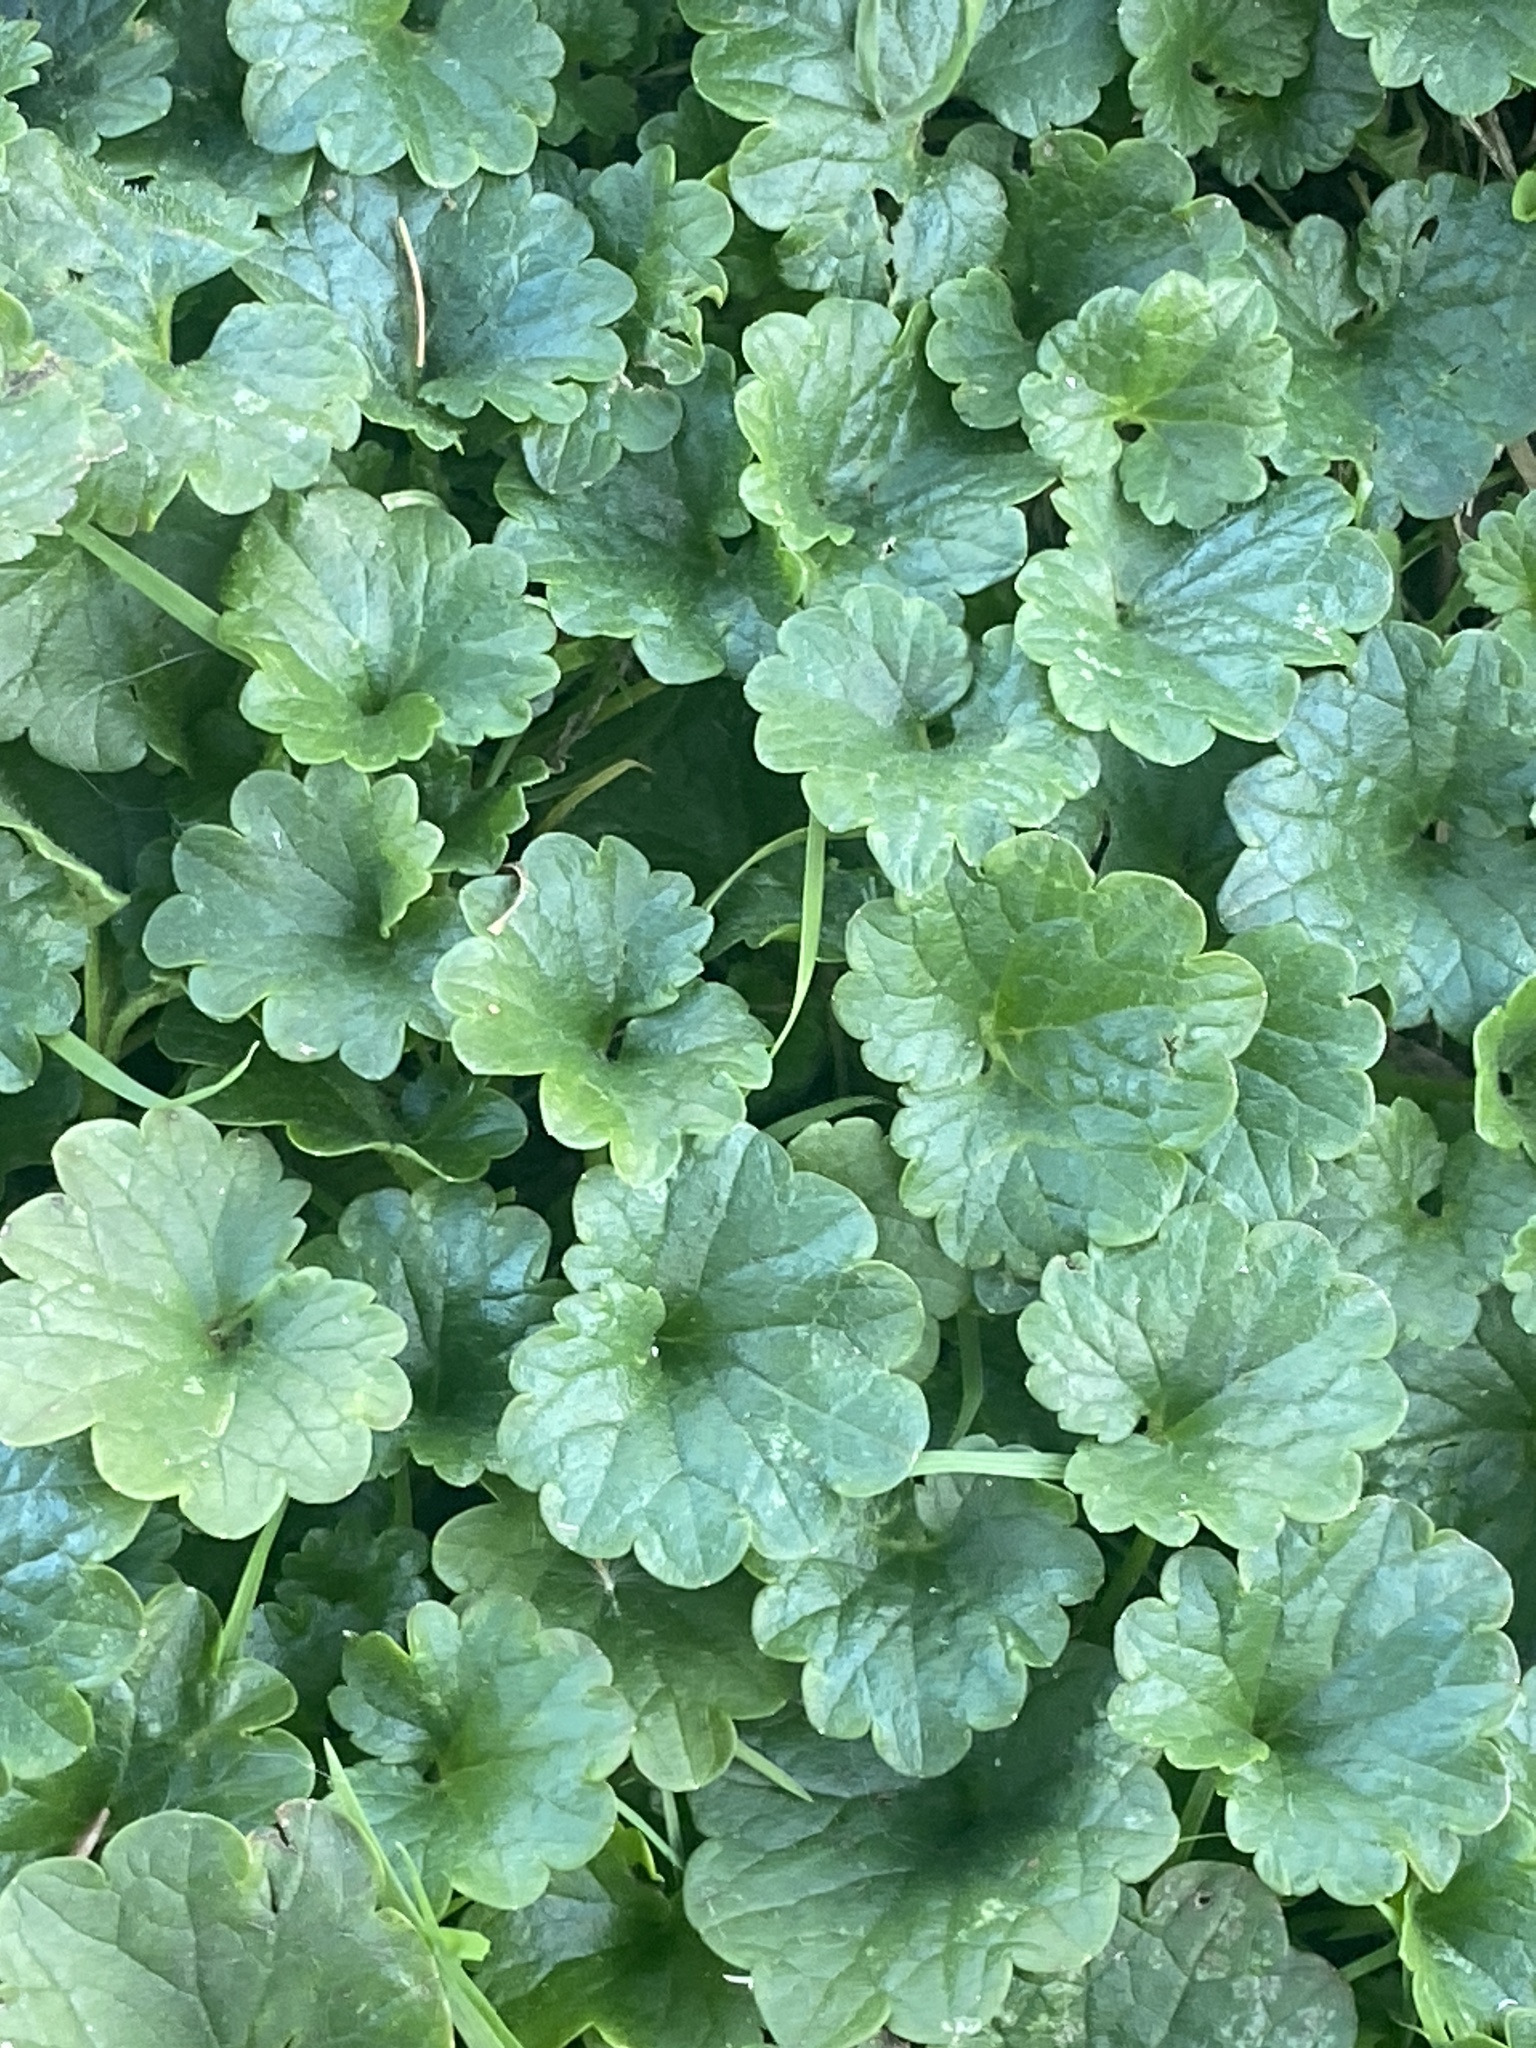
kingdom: Plantae
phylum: Tracheophyta
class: Magnoliopsida
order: Lamiales
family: Lamiaceae
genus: Glechoma
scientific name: Glechoma hederacea
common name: Ground ivy
